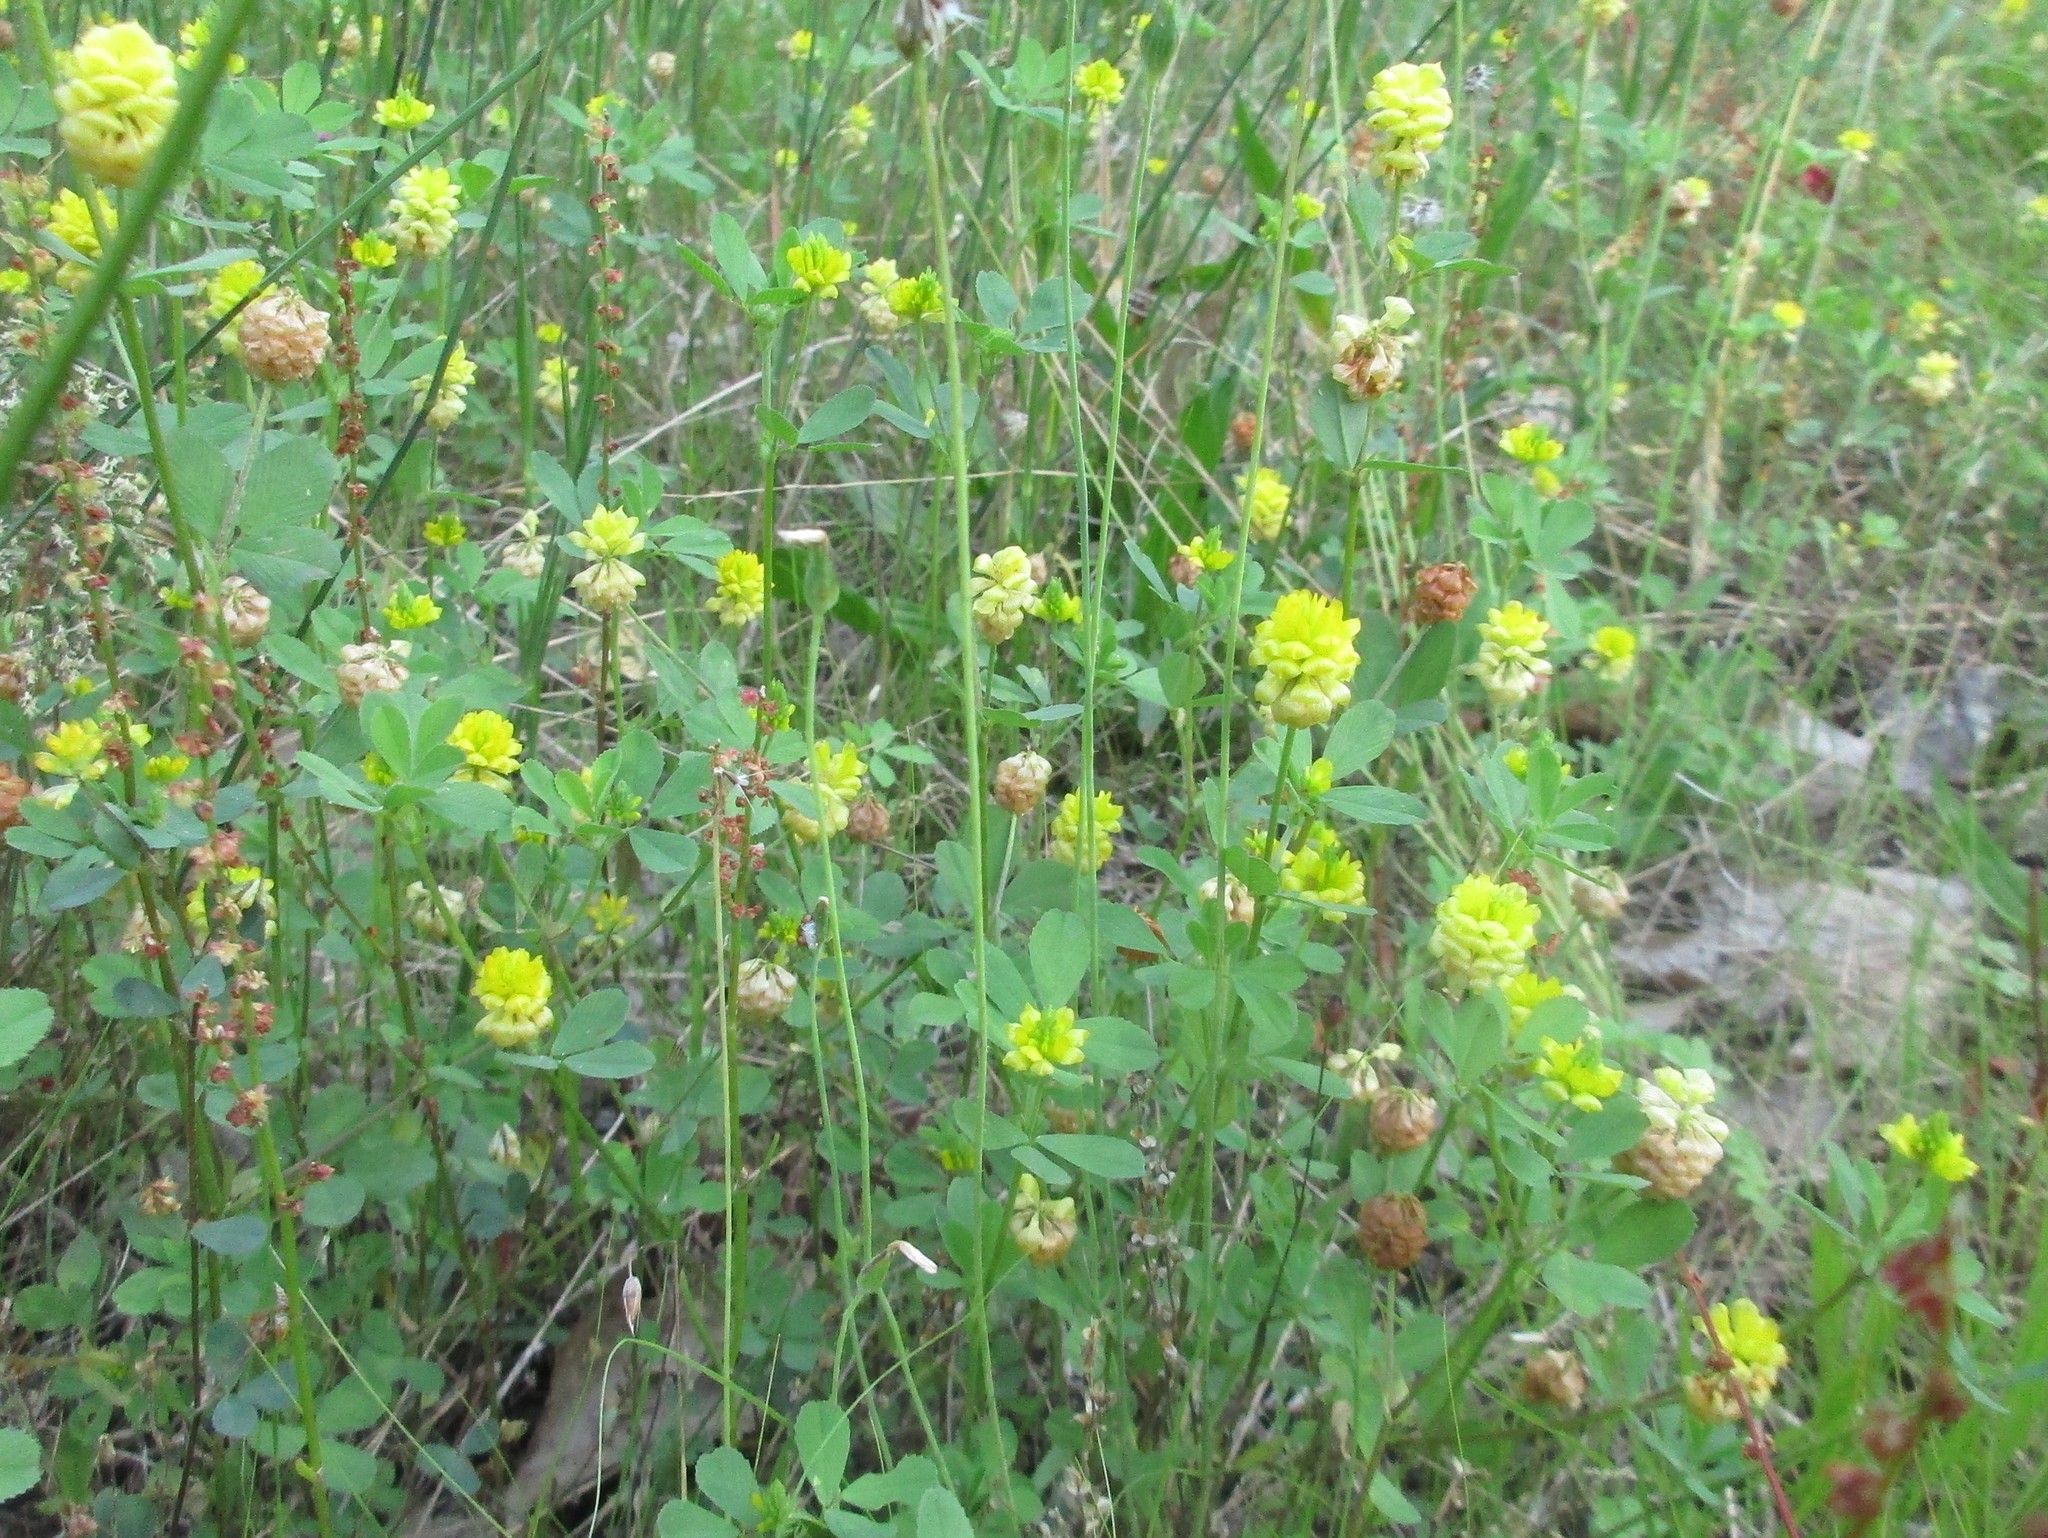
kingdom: Plantae
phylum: Tracheophyta
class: Magnoliopsida
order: Fabales
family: Fabaceae
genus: Trifolium
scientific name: Trifolium campestre
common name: Field clover
